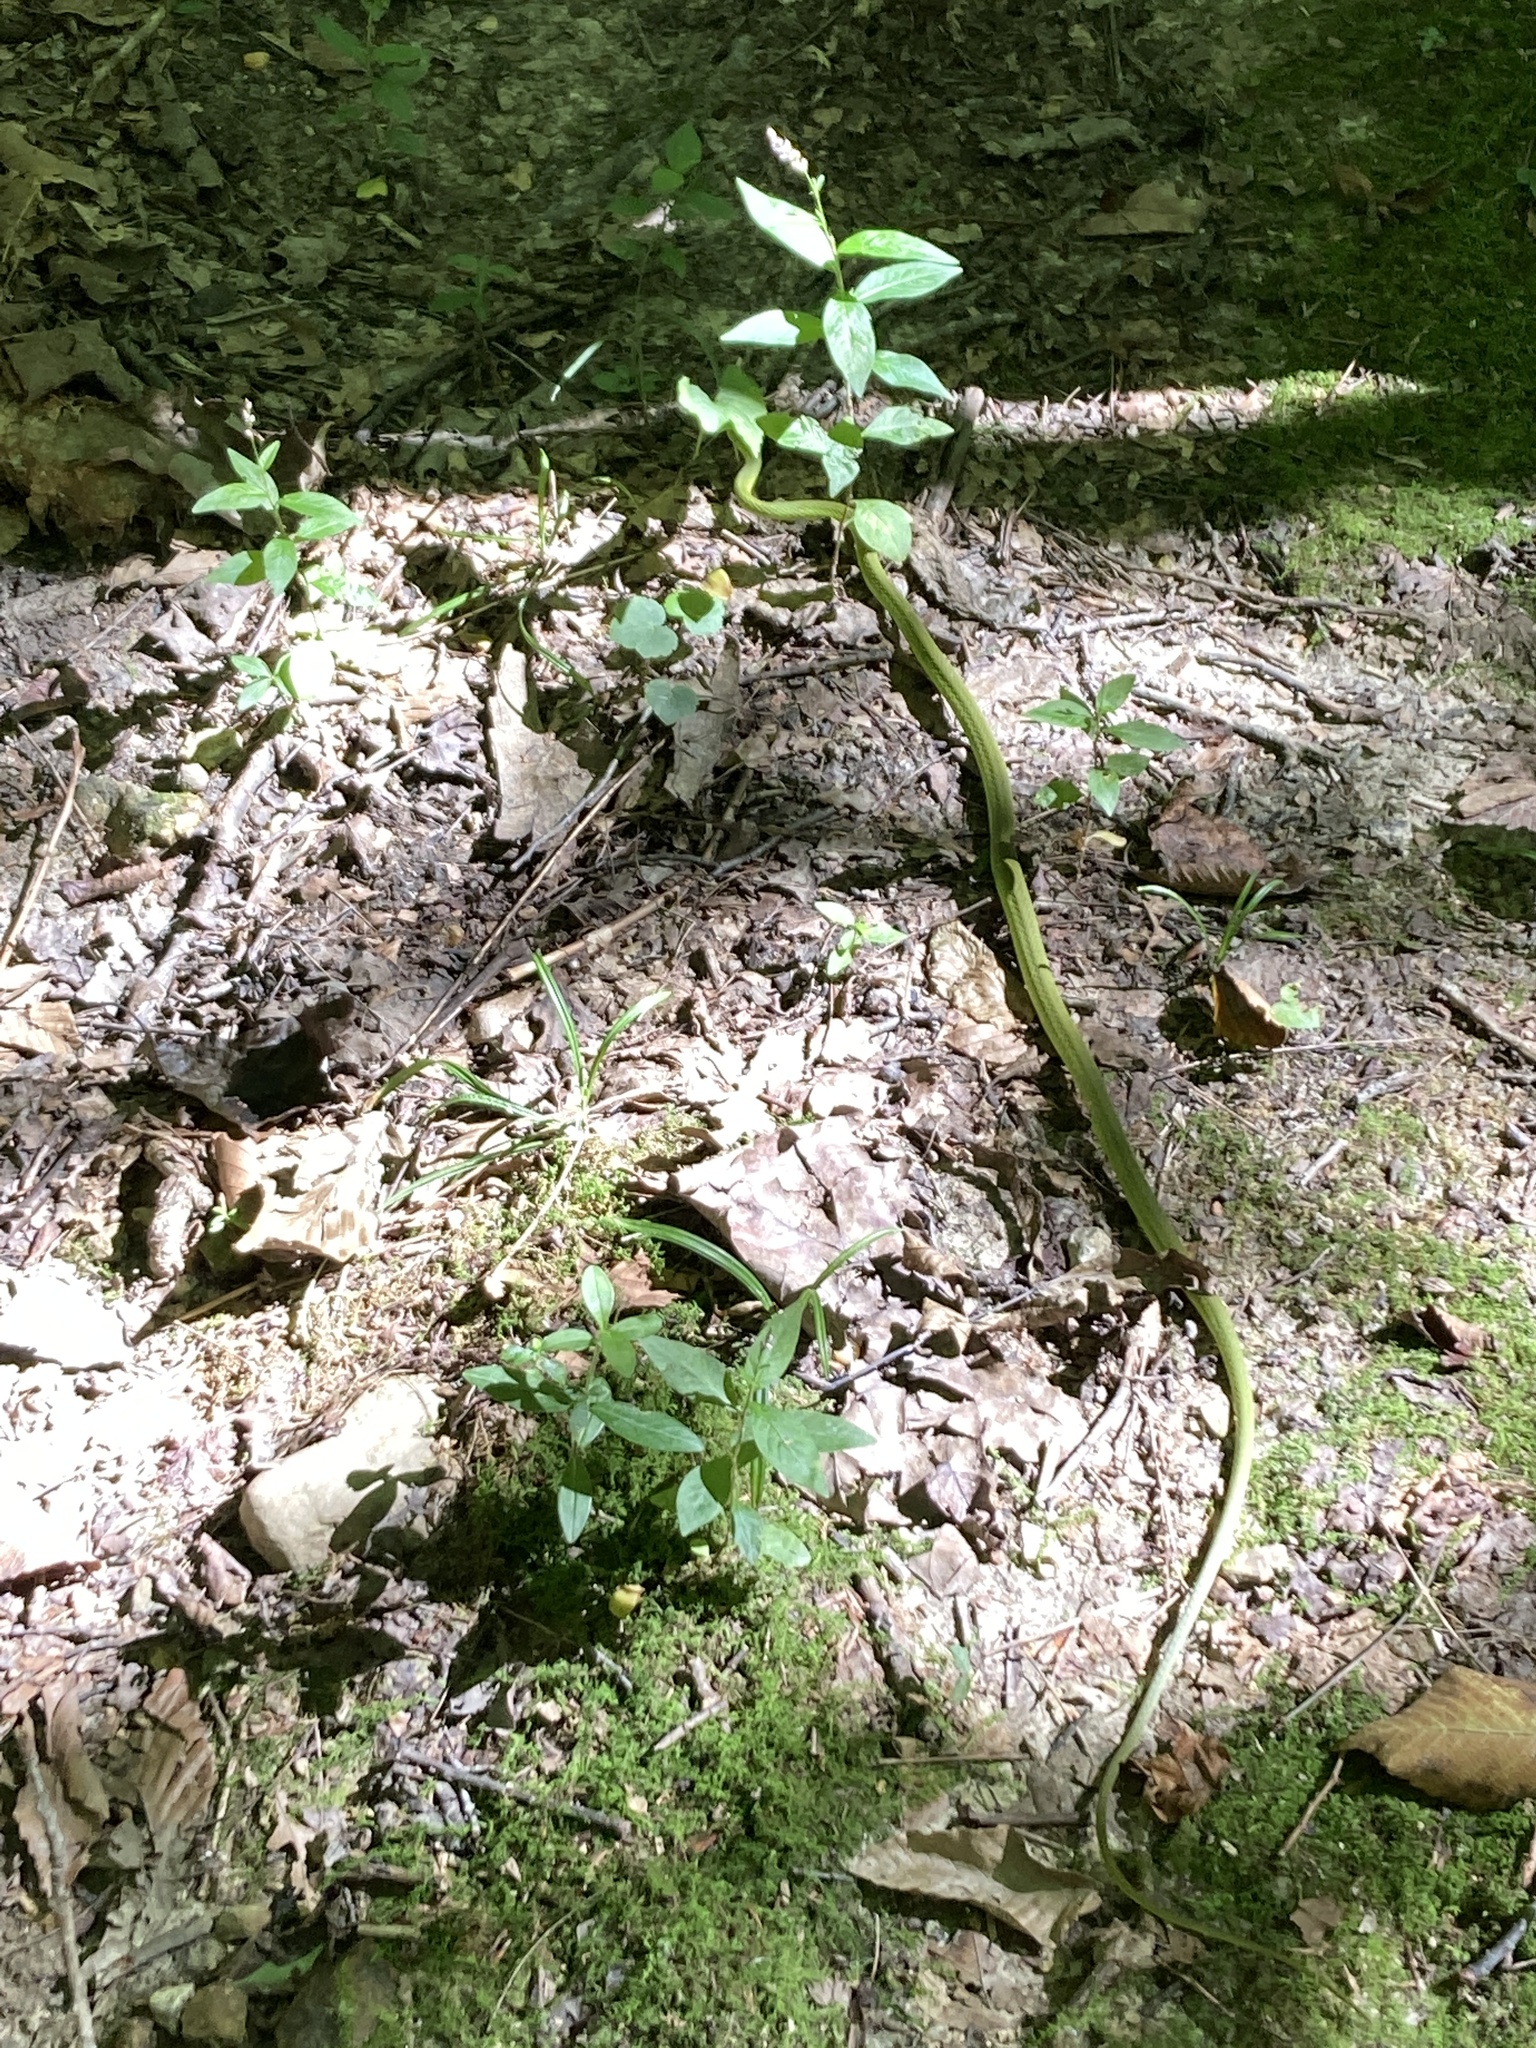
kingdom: Animalia
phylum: Chordata
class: Squamata
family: Colubridae
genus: Opheodrys
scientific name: Opheodrys aestivus
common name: Rough greensnake
